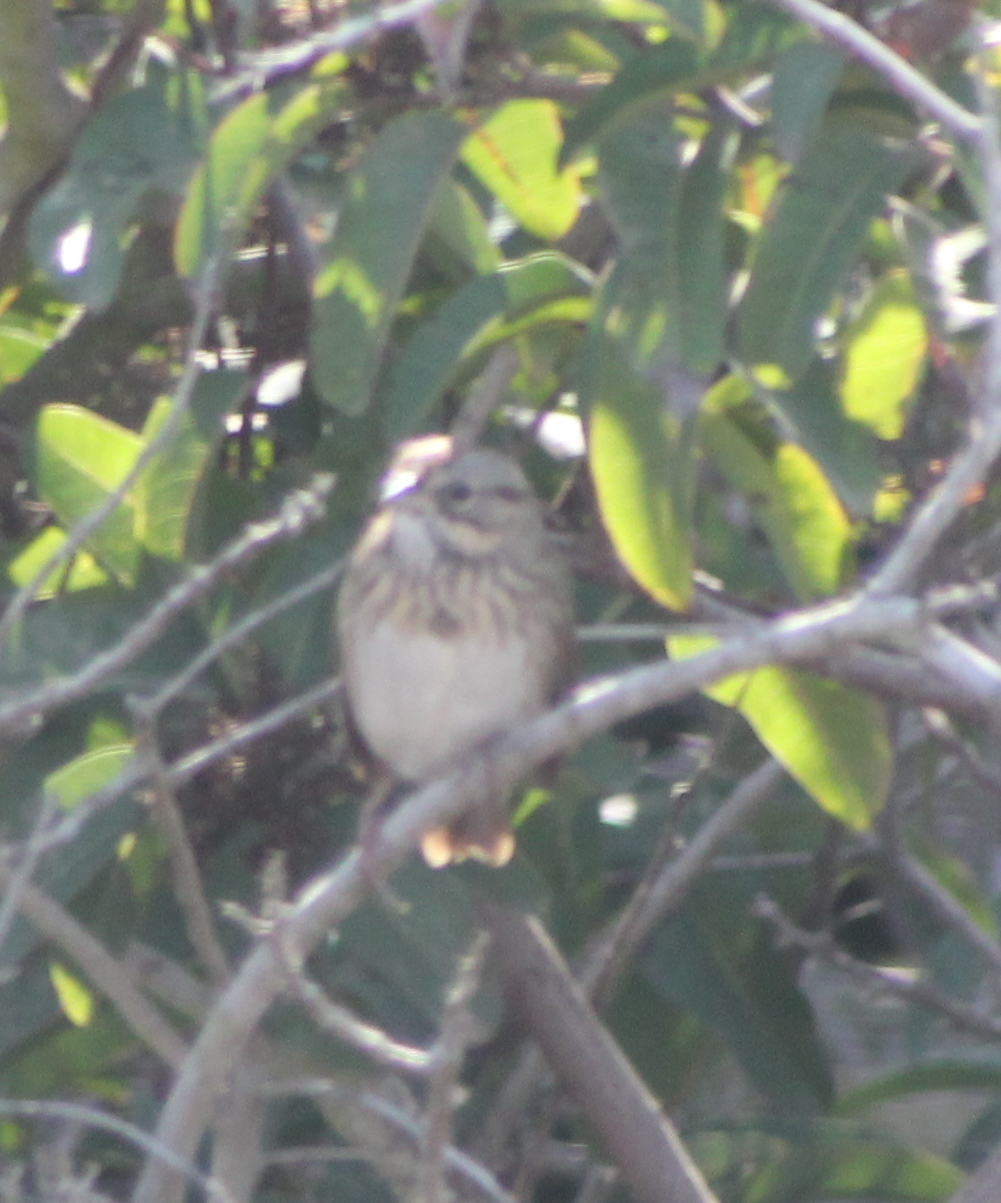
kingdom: Animalia
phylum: Chordata
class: Aves
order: Passeriformes
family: Passerellidae
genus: Melospiza
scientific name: Melospiza lincolnii
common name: Lincoln's sparrow
